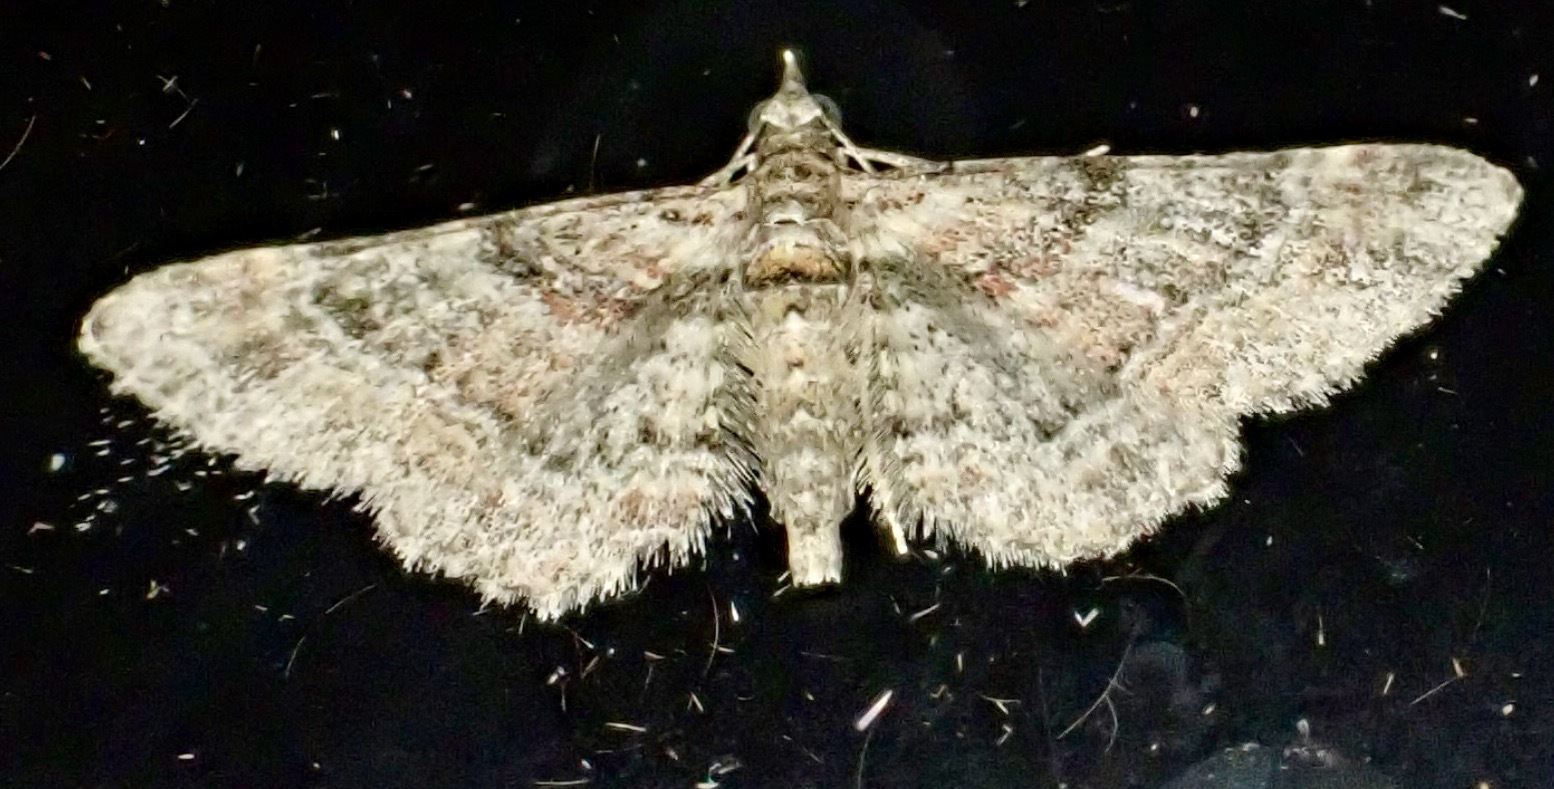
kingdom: Animalia
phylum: Arthropoda
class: Insecta
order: Lepidoptera
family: Geometridae
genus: Gymnoscelis
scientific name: Gymnoscelis rufifasciata
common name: Double-striped pug
